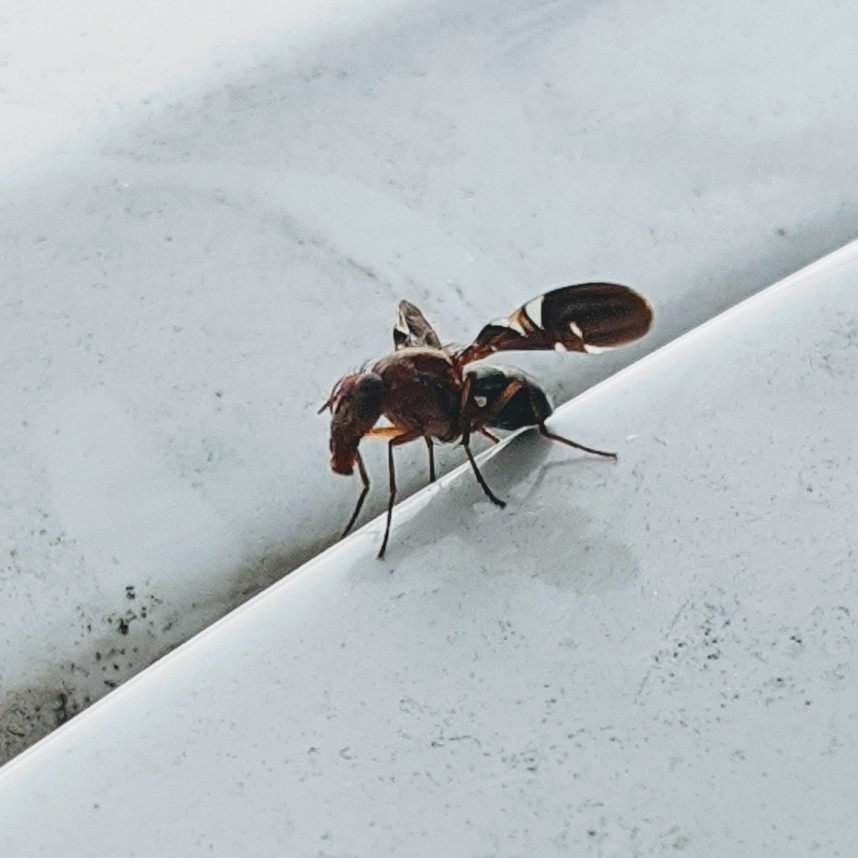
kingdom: Animalia
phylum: Arthropoda
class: Insecta
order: Diptera
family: Ulidiidae
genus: Delphinia
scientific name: Delphinia picta
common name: Common picture-winged fly
